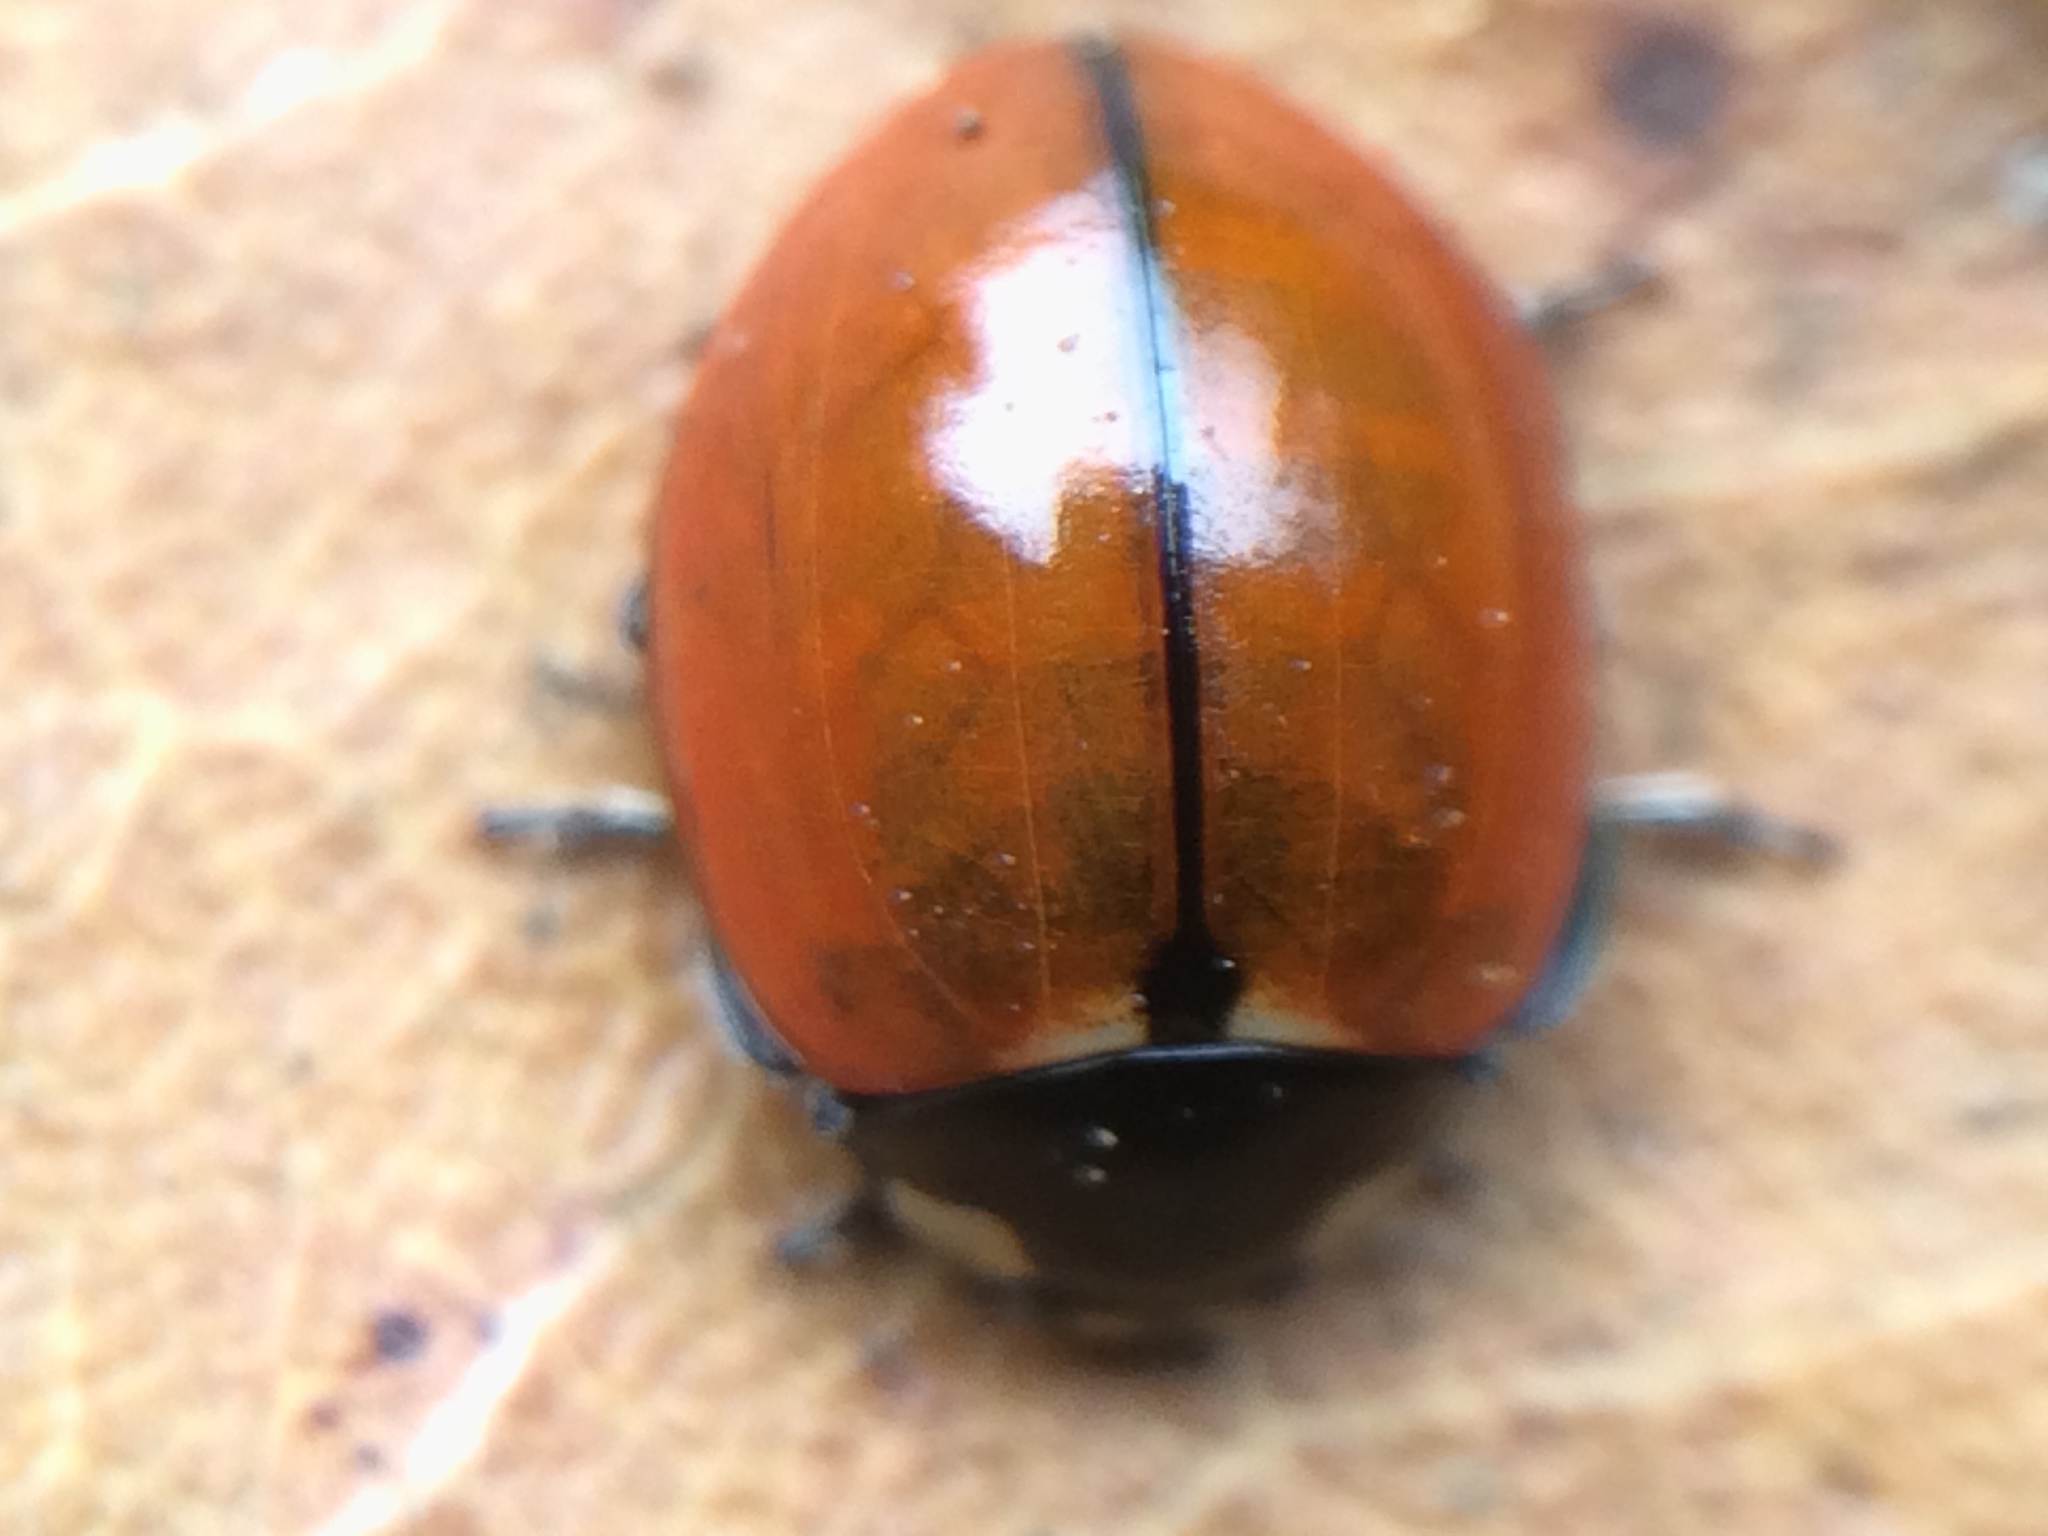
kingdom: Animalia
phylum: Arthropoda
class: Insecta
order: Coleoptera
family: Coccinellidae
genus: Coccinella
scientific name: Coccinella californica
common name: Lady beetle
